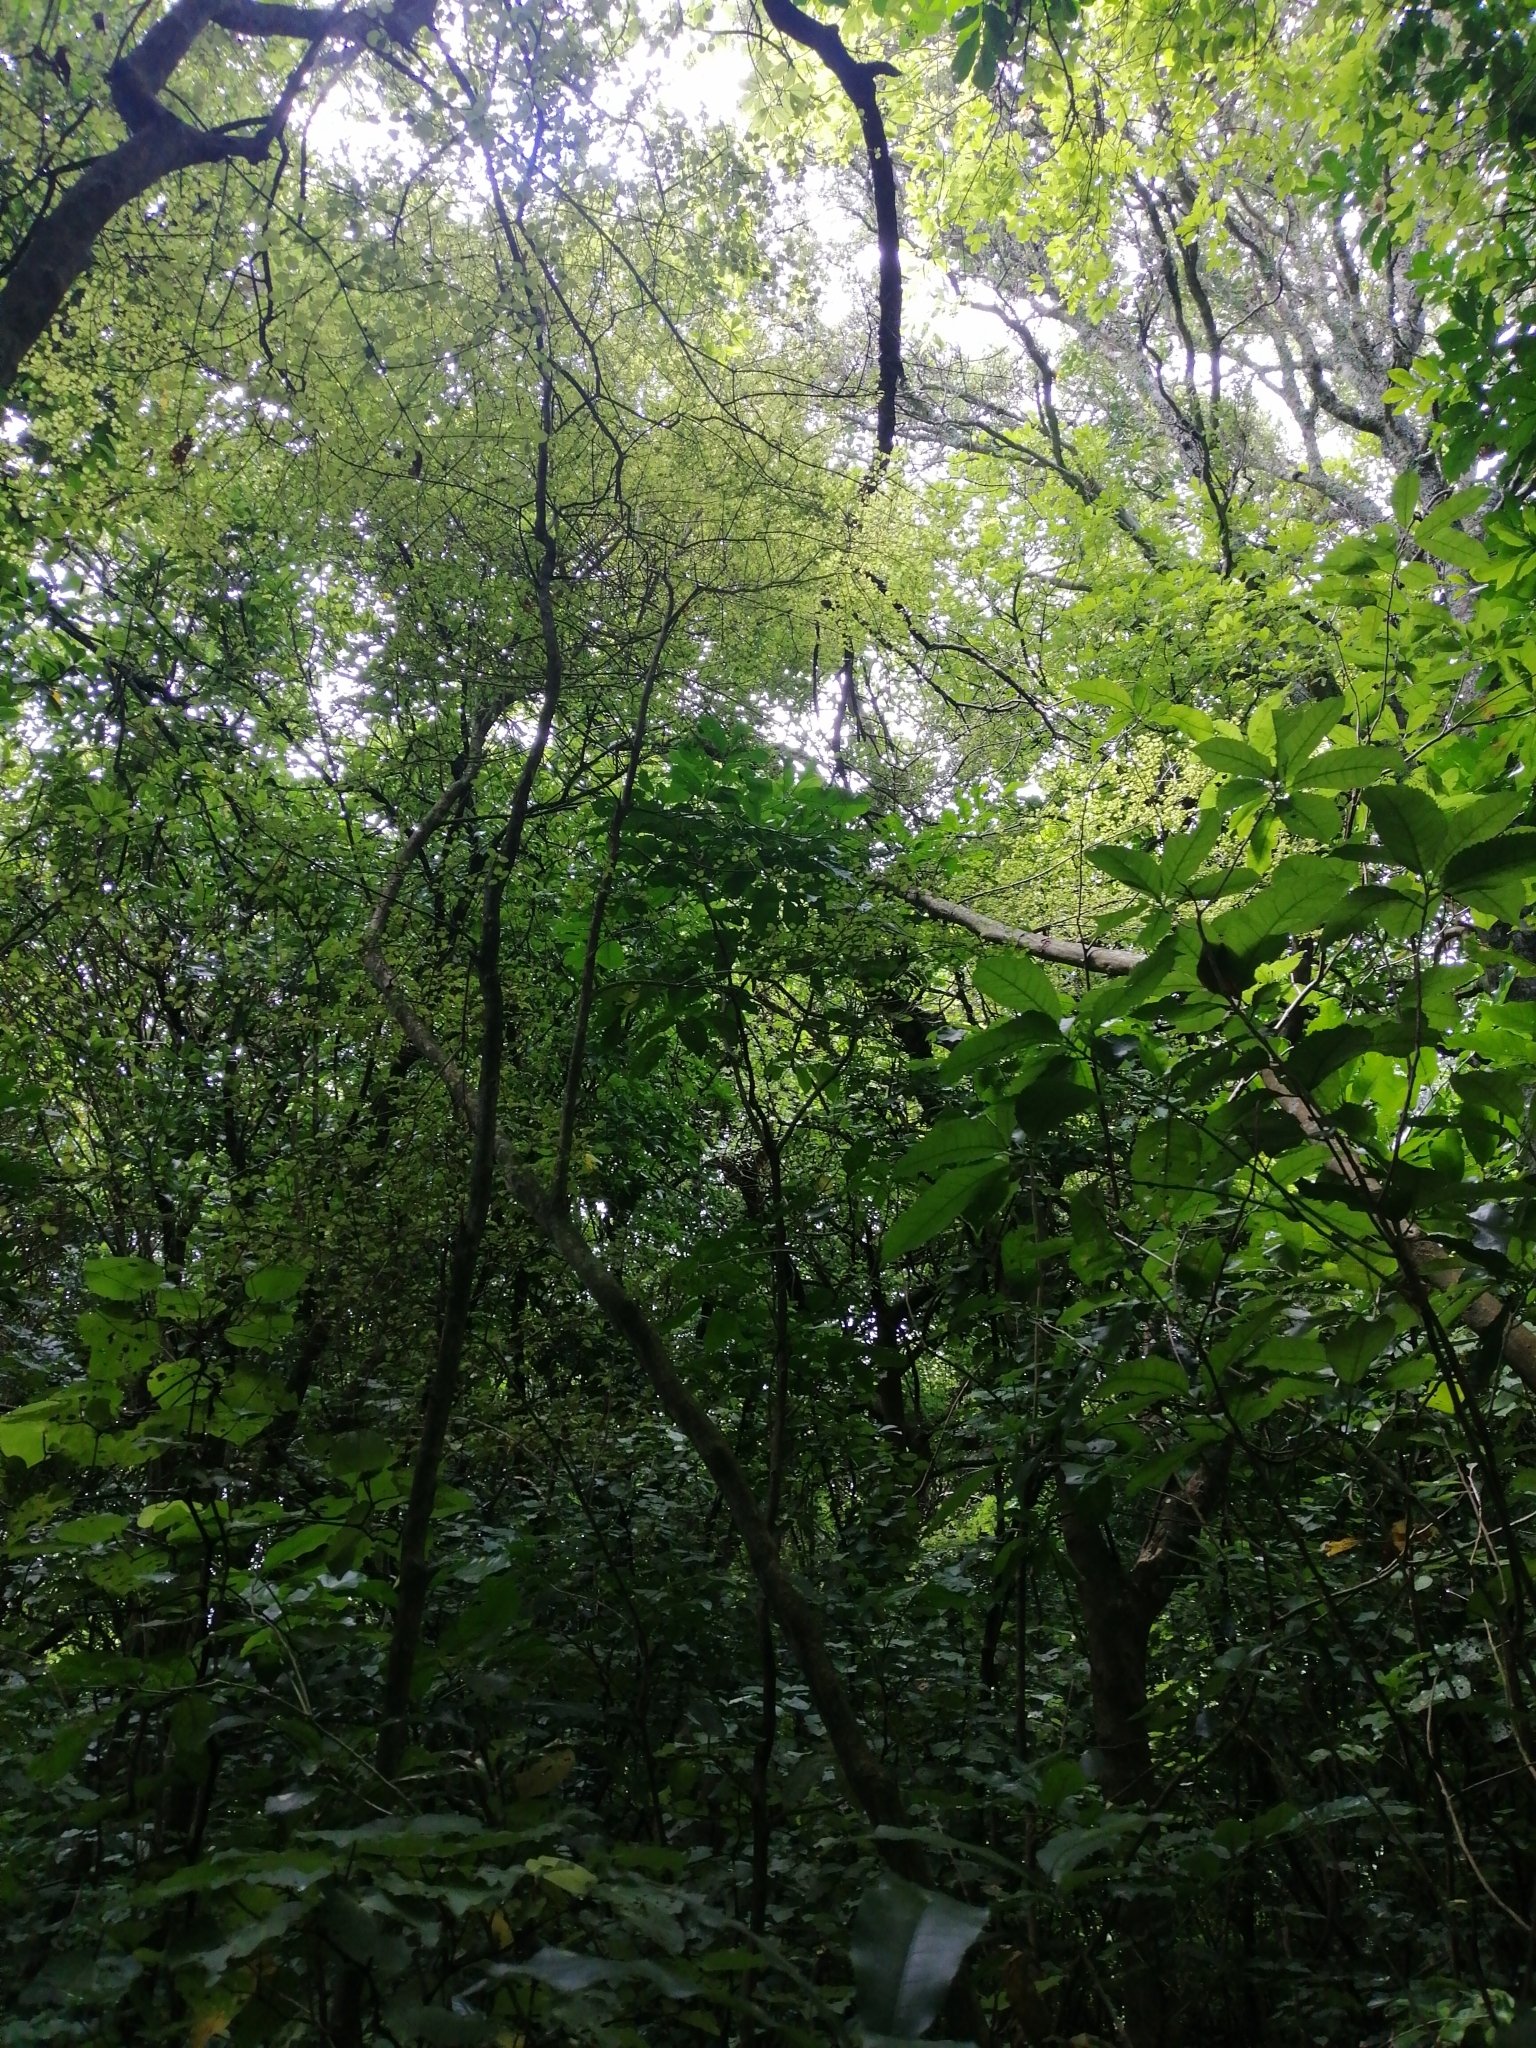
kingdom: Plantae
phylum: Tracheophyta
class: Magnoliopsida
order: Gentianales
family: Rubiaceae
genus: Coprosma
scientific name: Coprosma areolata
